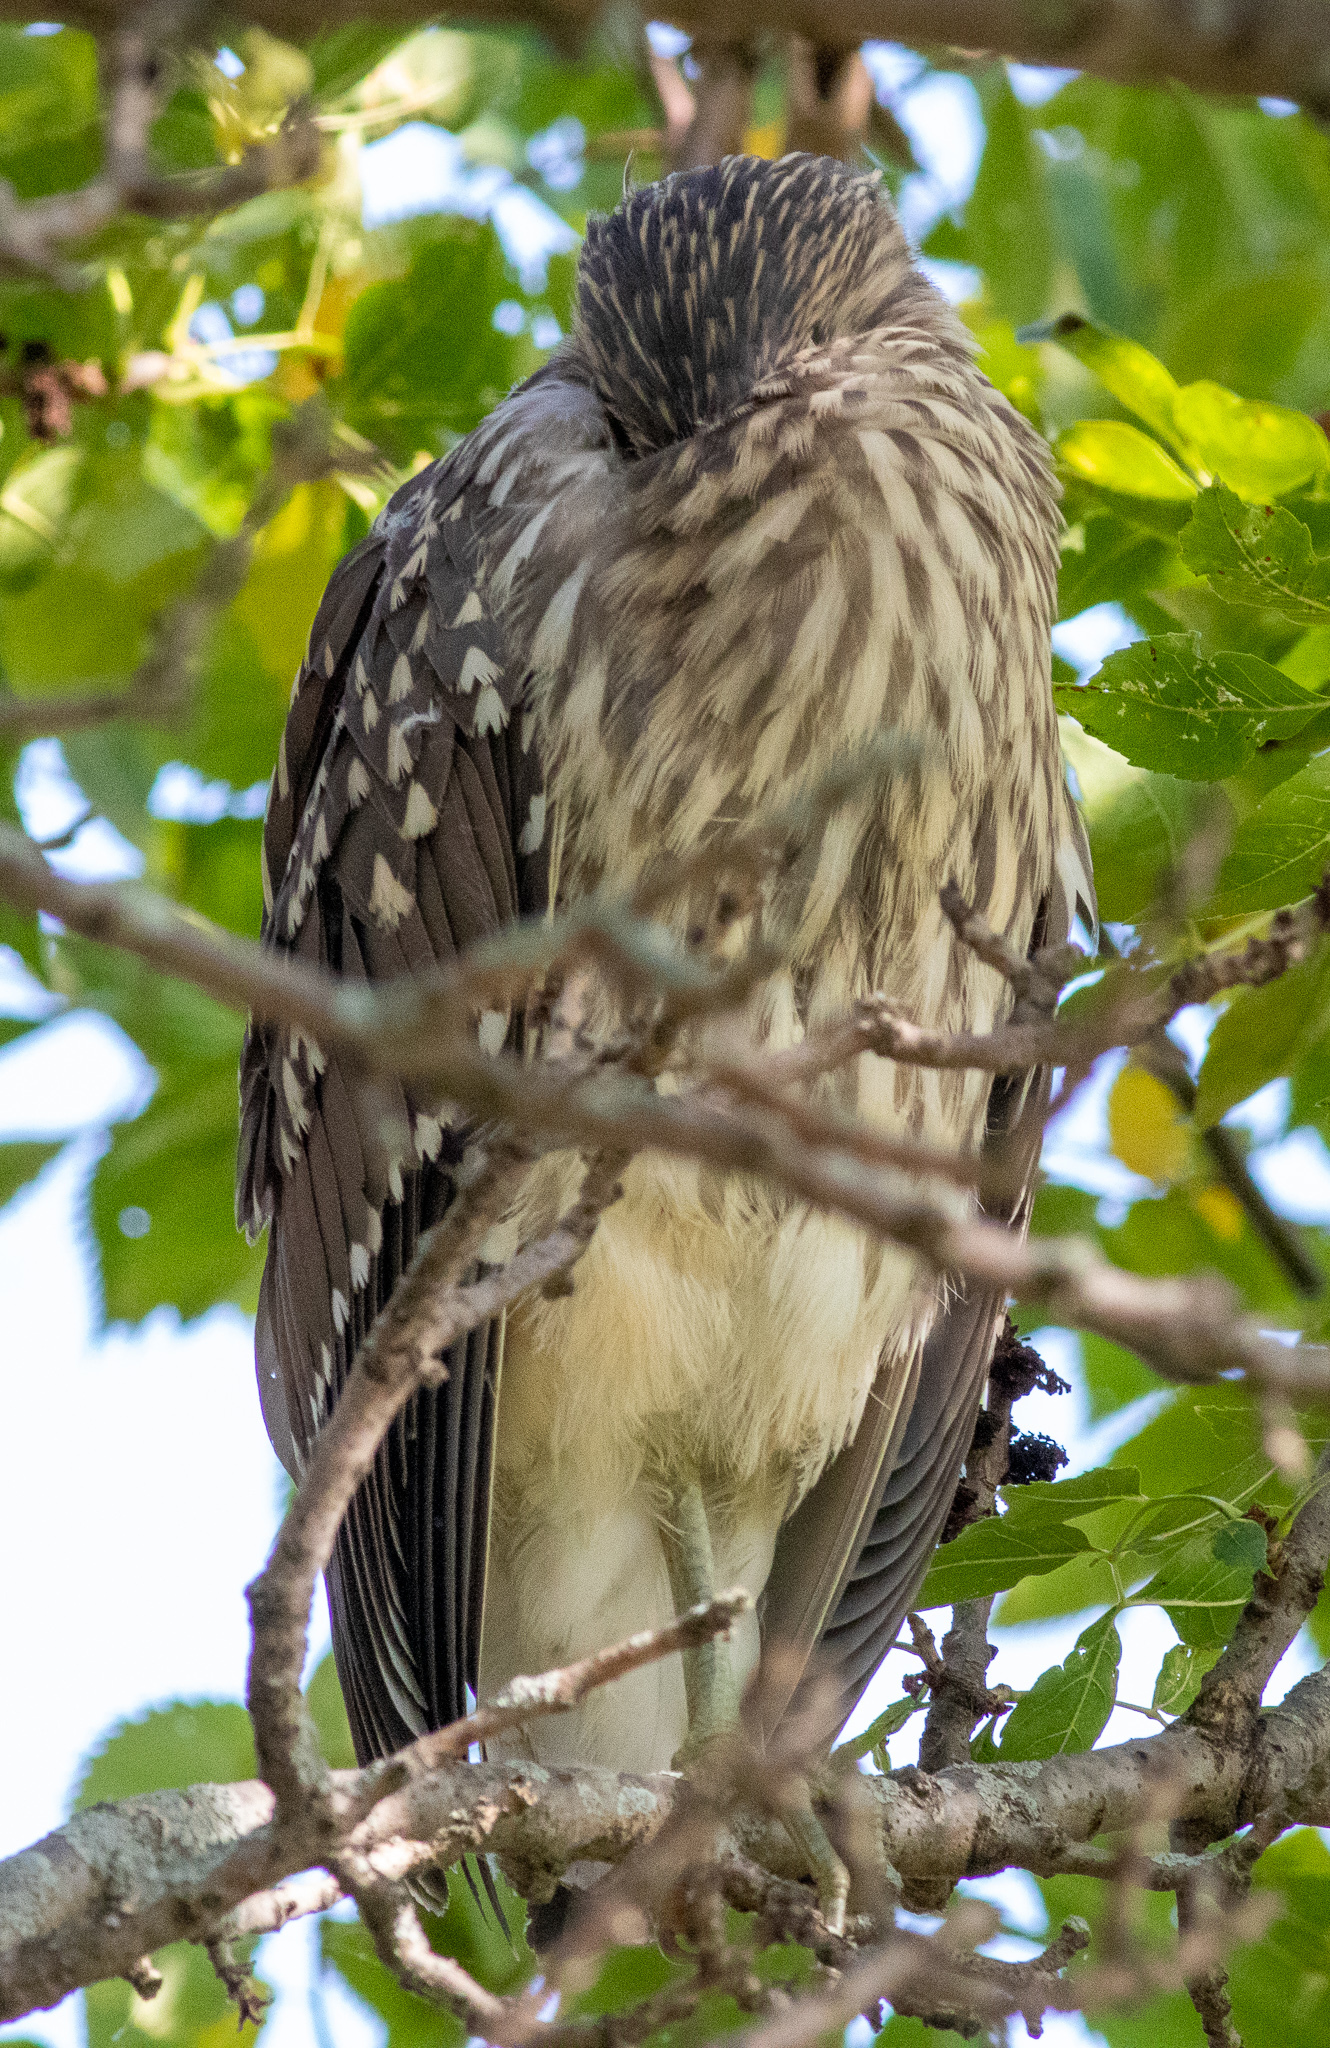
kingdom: Animalia
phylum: Chordata
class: Aves
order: Pelecaniformes
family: Ardeidae
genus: Nycticorax
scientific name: Nycticorax nycticorax
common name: Black-crowned night heron
